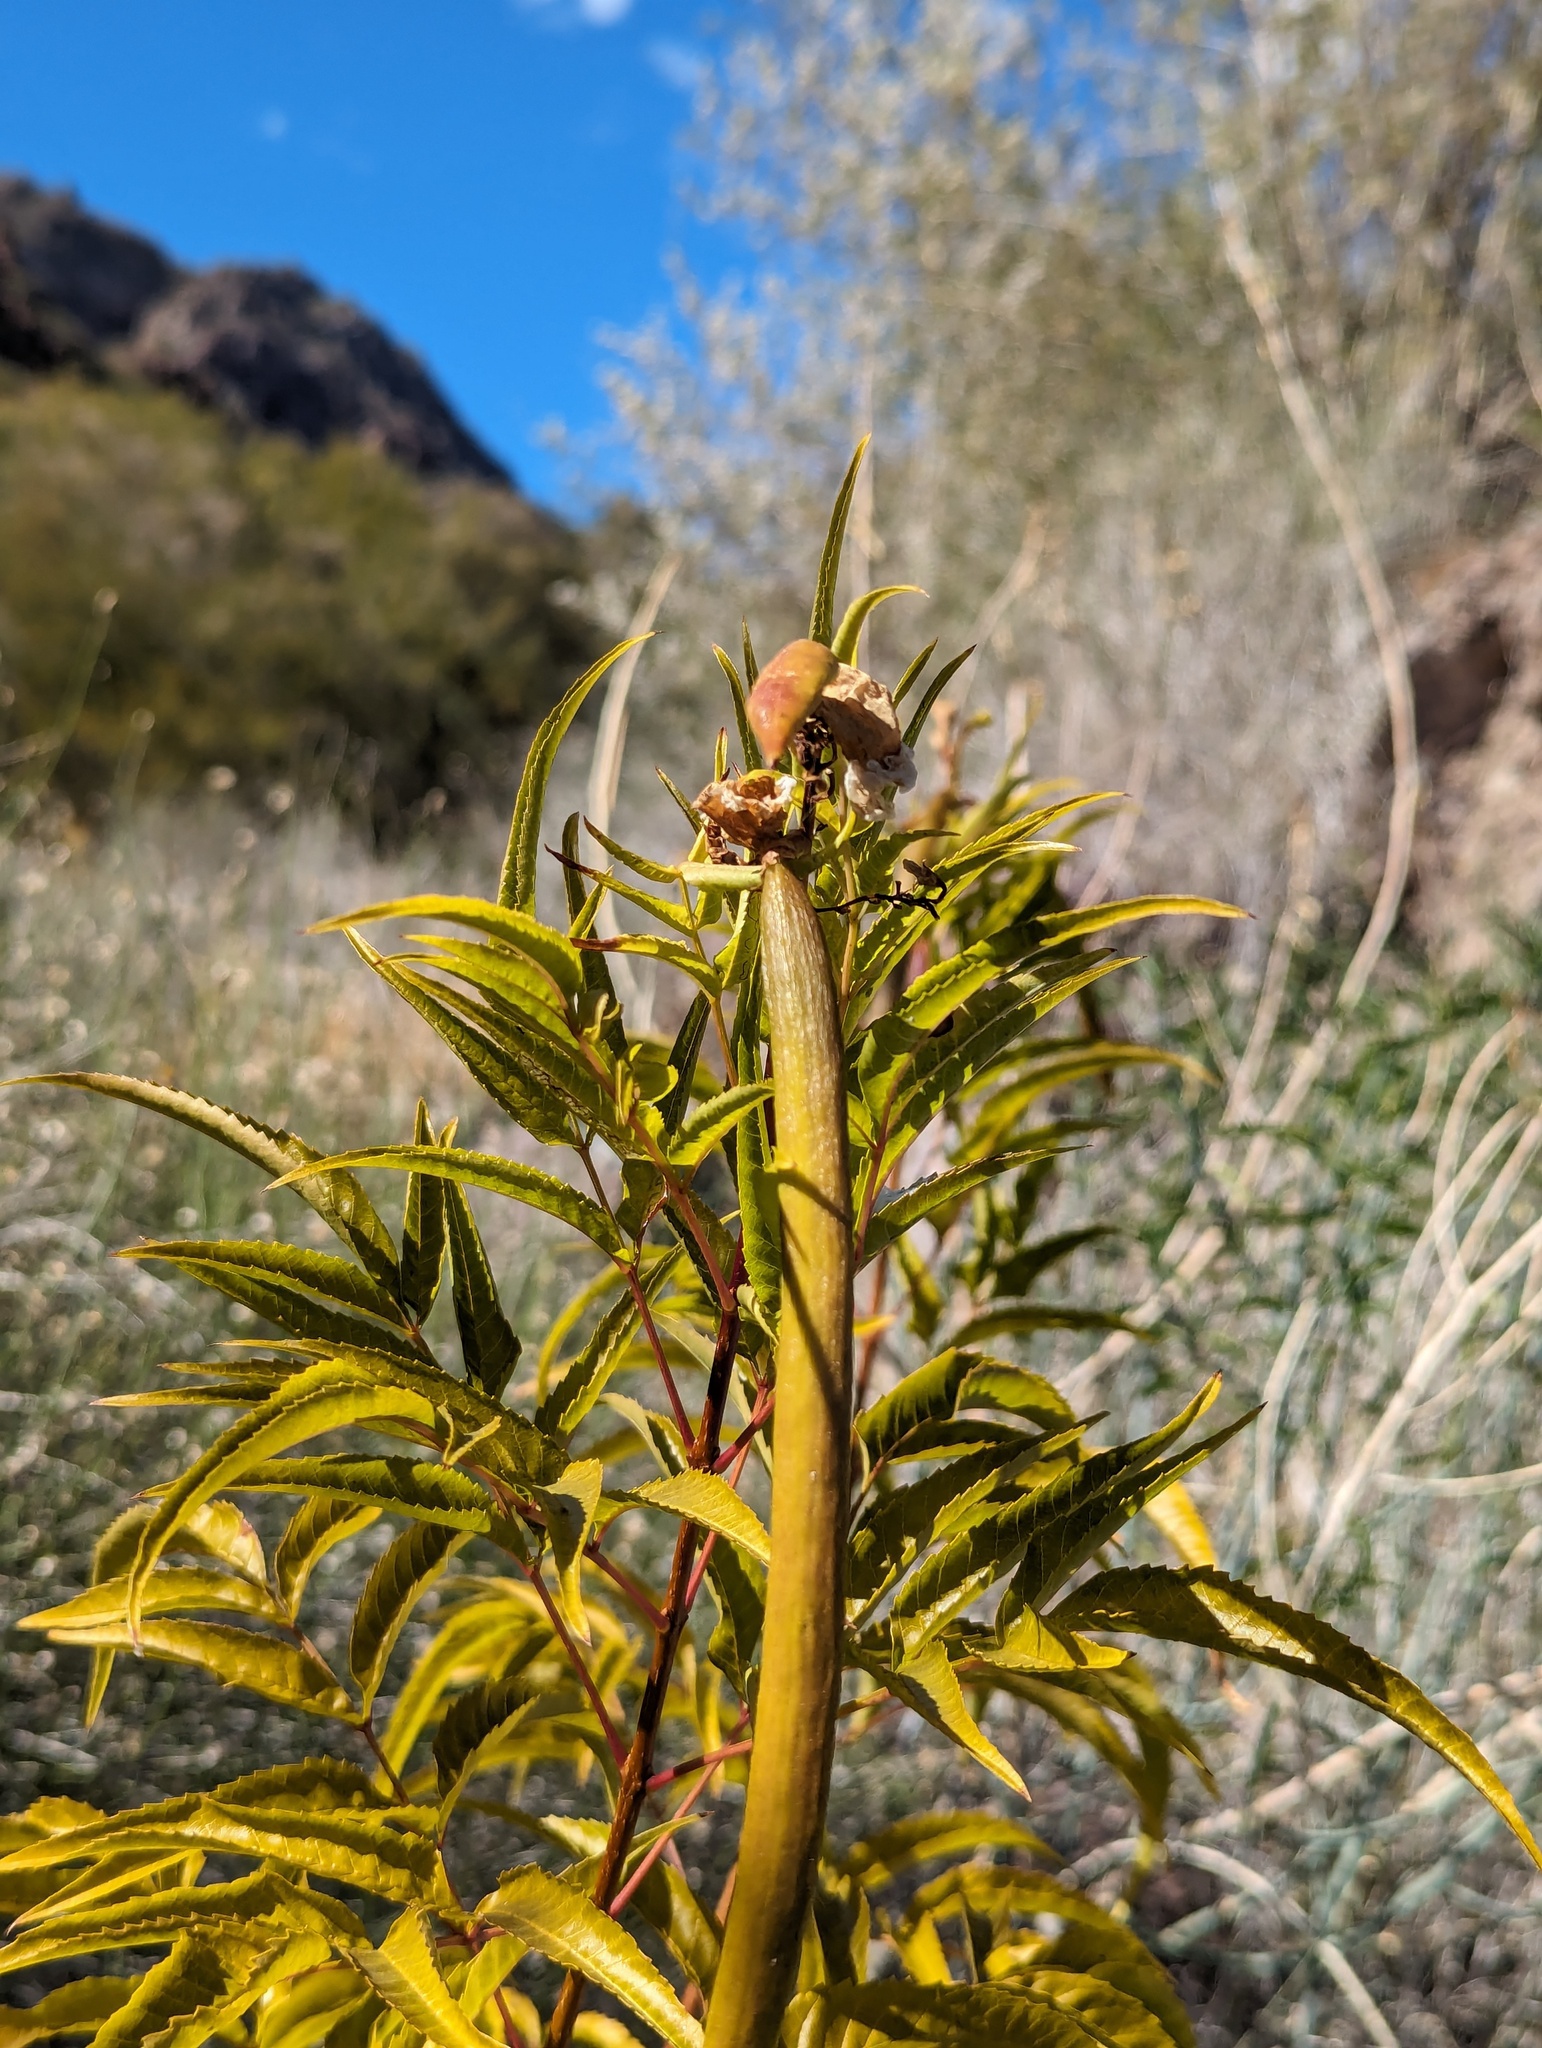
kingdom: Plantae
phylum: Tracheophyta
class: Magnoliopsida
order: Lamiales
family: Bignoniaceae
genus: Tecoma
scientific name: Tecoma stans
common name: Yellow trumpetbush
